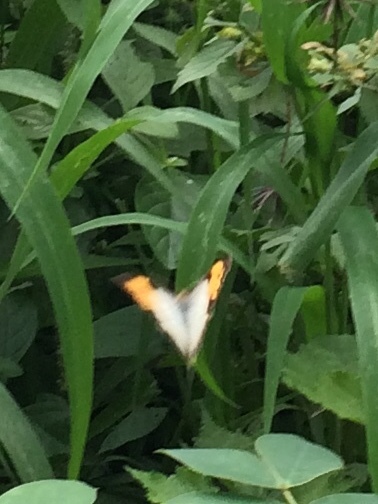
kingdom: Animalia
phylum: Arthropoda
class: Insecta
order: Lepidoptera
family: Pieridae
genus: Ixias
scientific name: Ixias marianne
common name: White orange tip
